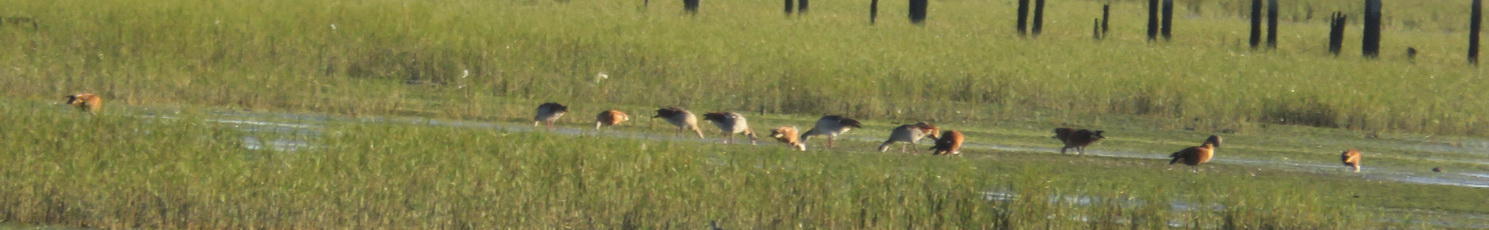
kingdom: Animalia
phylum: Chordata
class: Aves
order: Anseriformes
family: Anatidae
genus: Alopochen
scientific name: Alopochen aegyptiaca
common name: Egyptian goose
